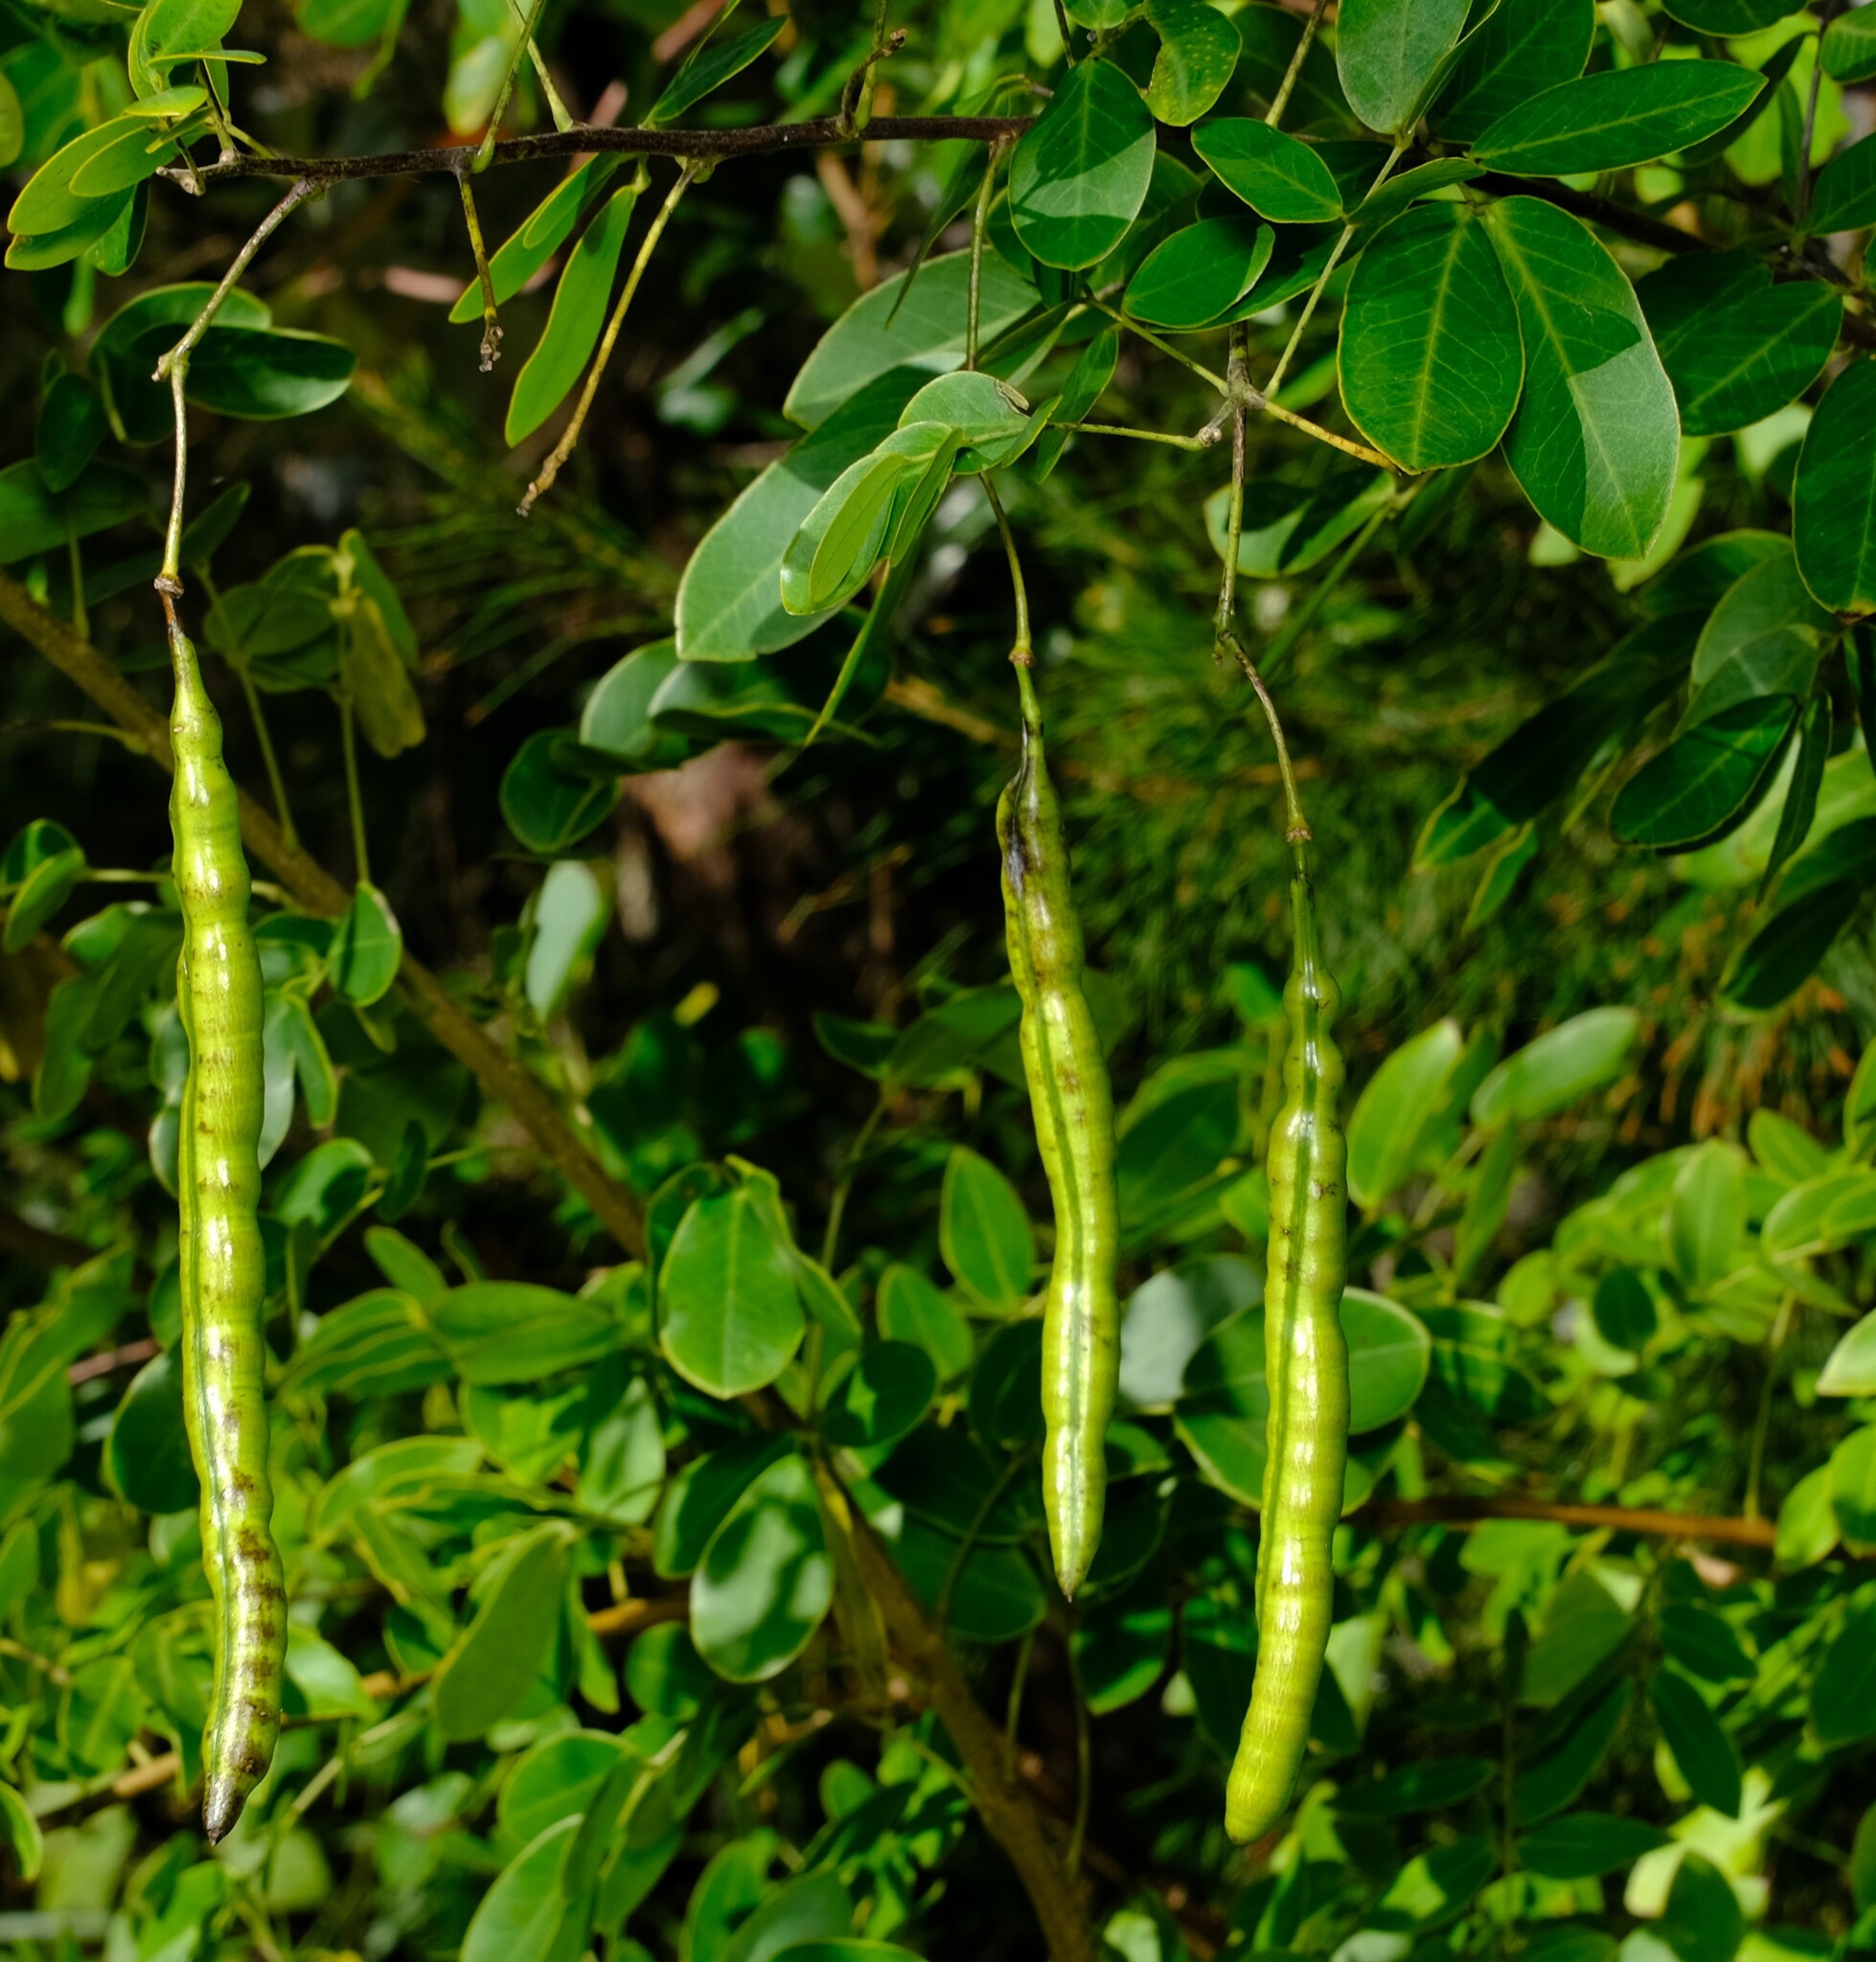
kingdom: Plantae
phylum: Tracheophyta
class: Magnoliopsida
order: Fabales
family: Fabaceae
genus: Senna
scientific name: Senna pendula
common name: Easter cassia
